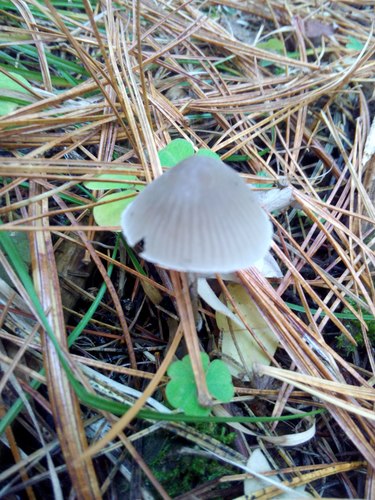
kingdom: Fungi
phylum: Basidiomycota
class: Agaricomycetes
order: Agaricales
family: Mycenaceae
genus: Mycena
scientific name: Mycena
